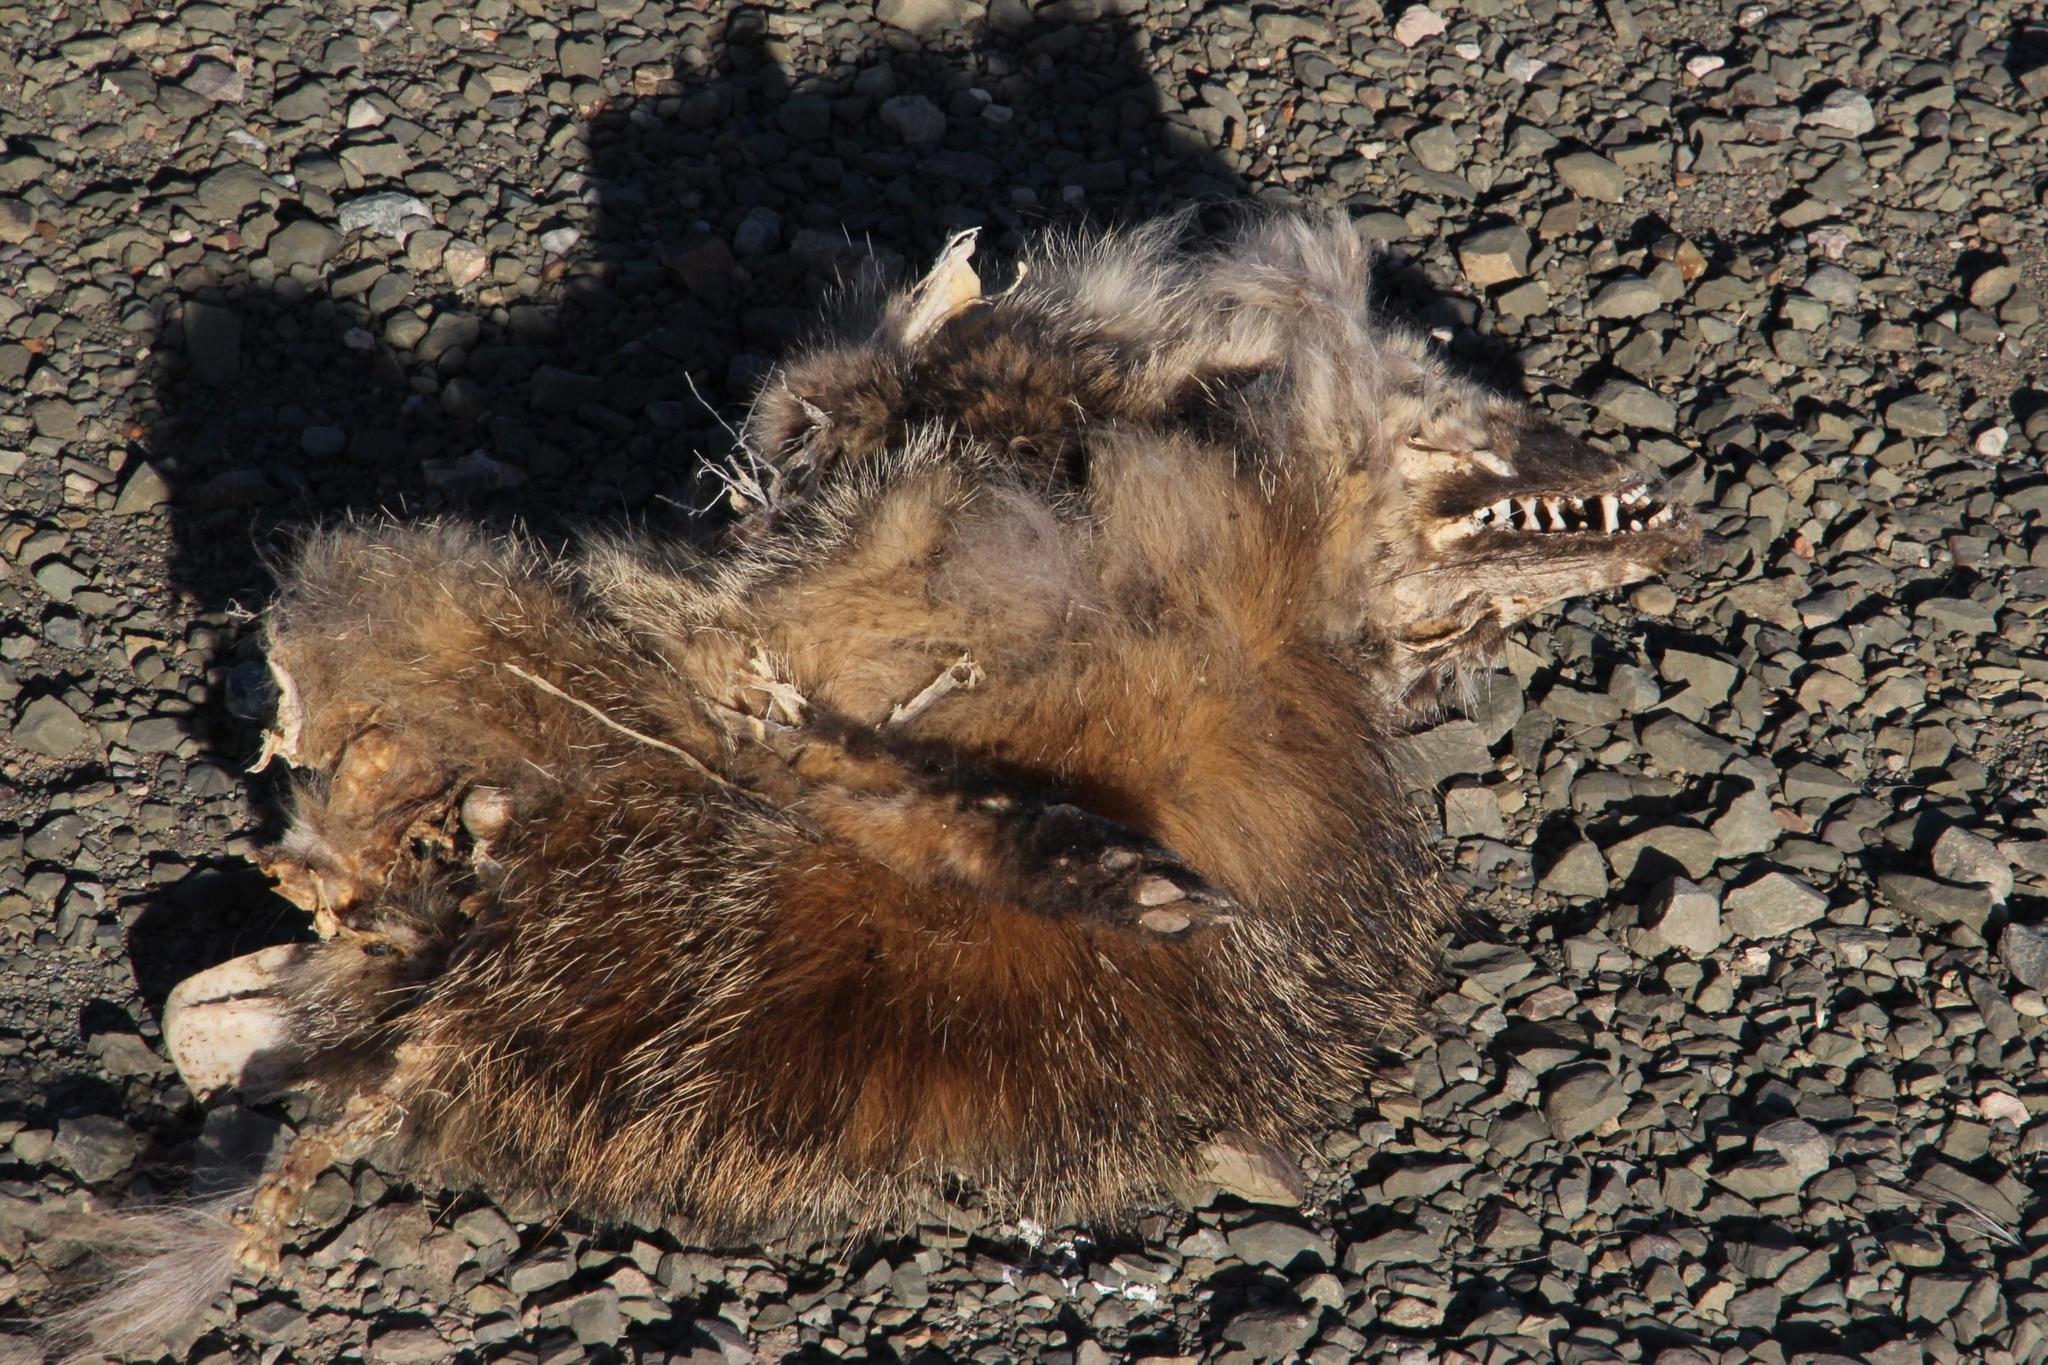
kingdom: Animalia
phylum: Chordata
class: Mammalia
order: Carnivora
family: Canidae
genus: Otocyon
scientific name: Otocyon megalotis
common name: Bat-eared fox
